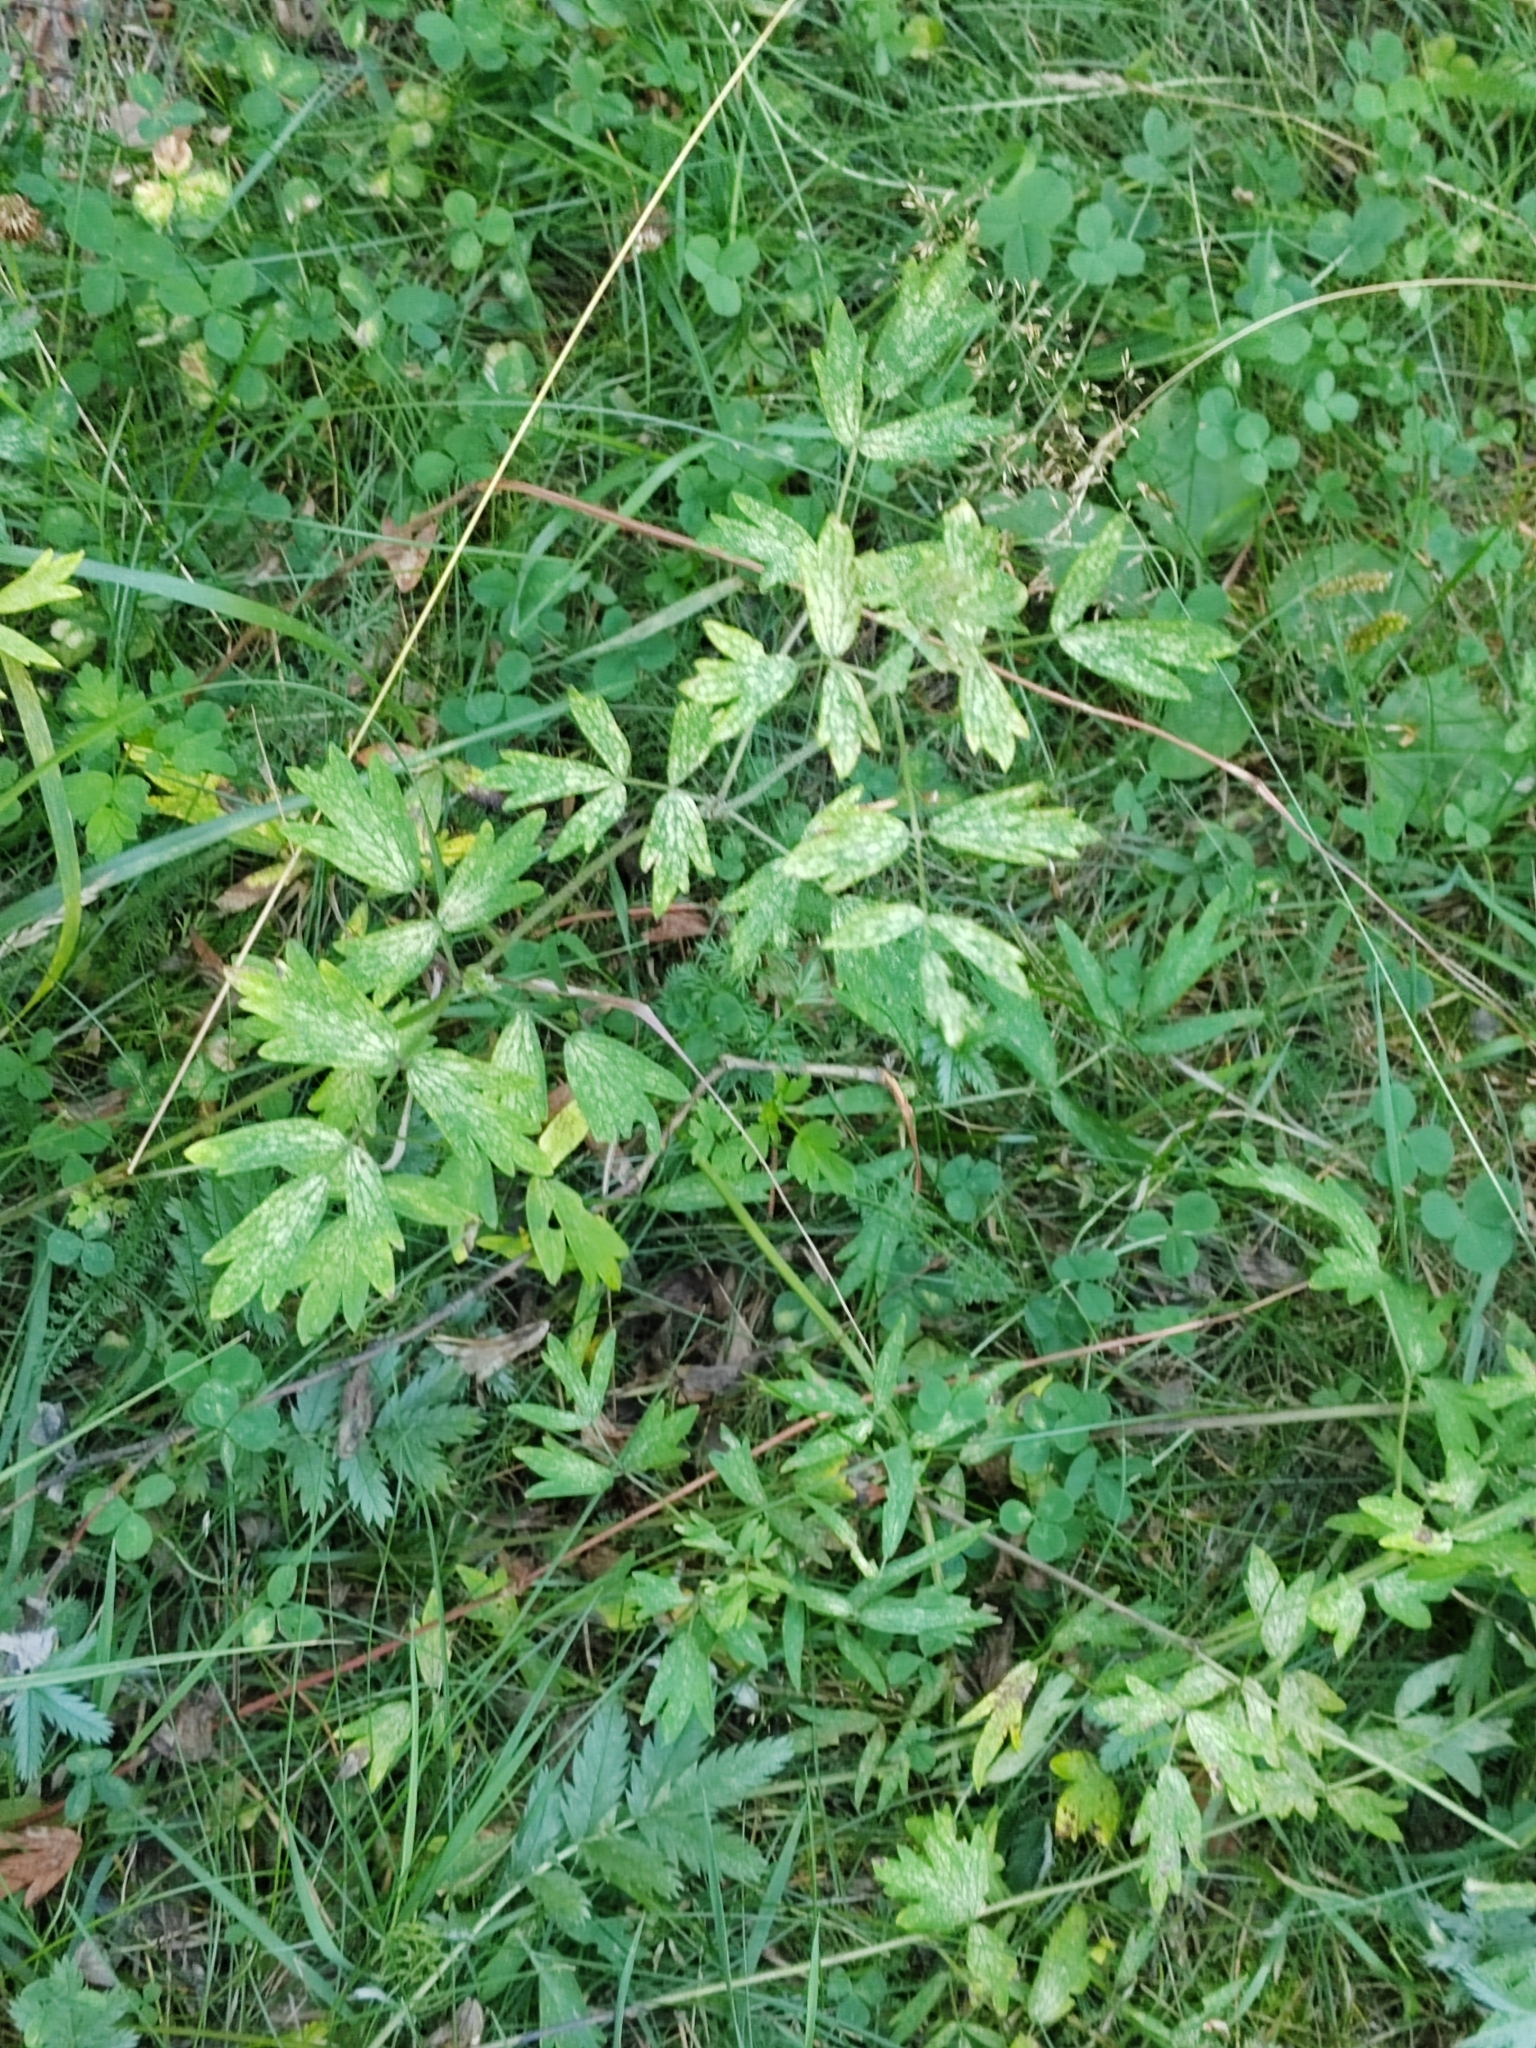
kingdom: Plantae
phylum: Tracheophyta
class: Magnoliopsida
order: Ranunculales
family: Ranunculaceae
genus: Thalictrum
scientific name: Thalictrum flavum
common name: Common meadow-rue
